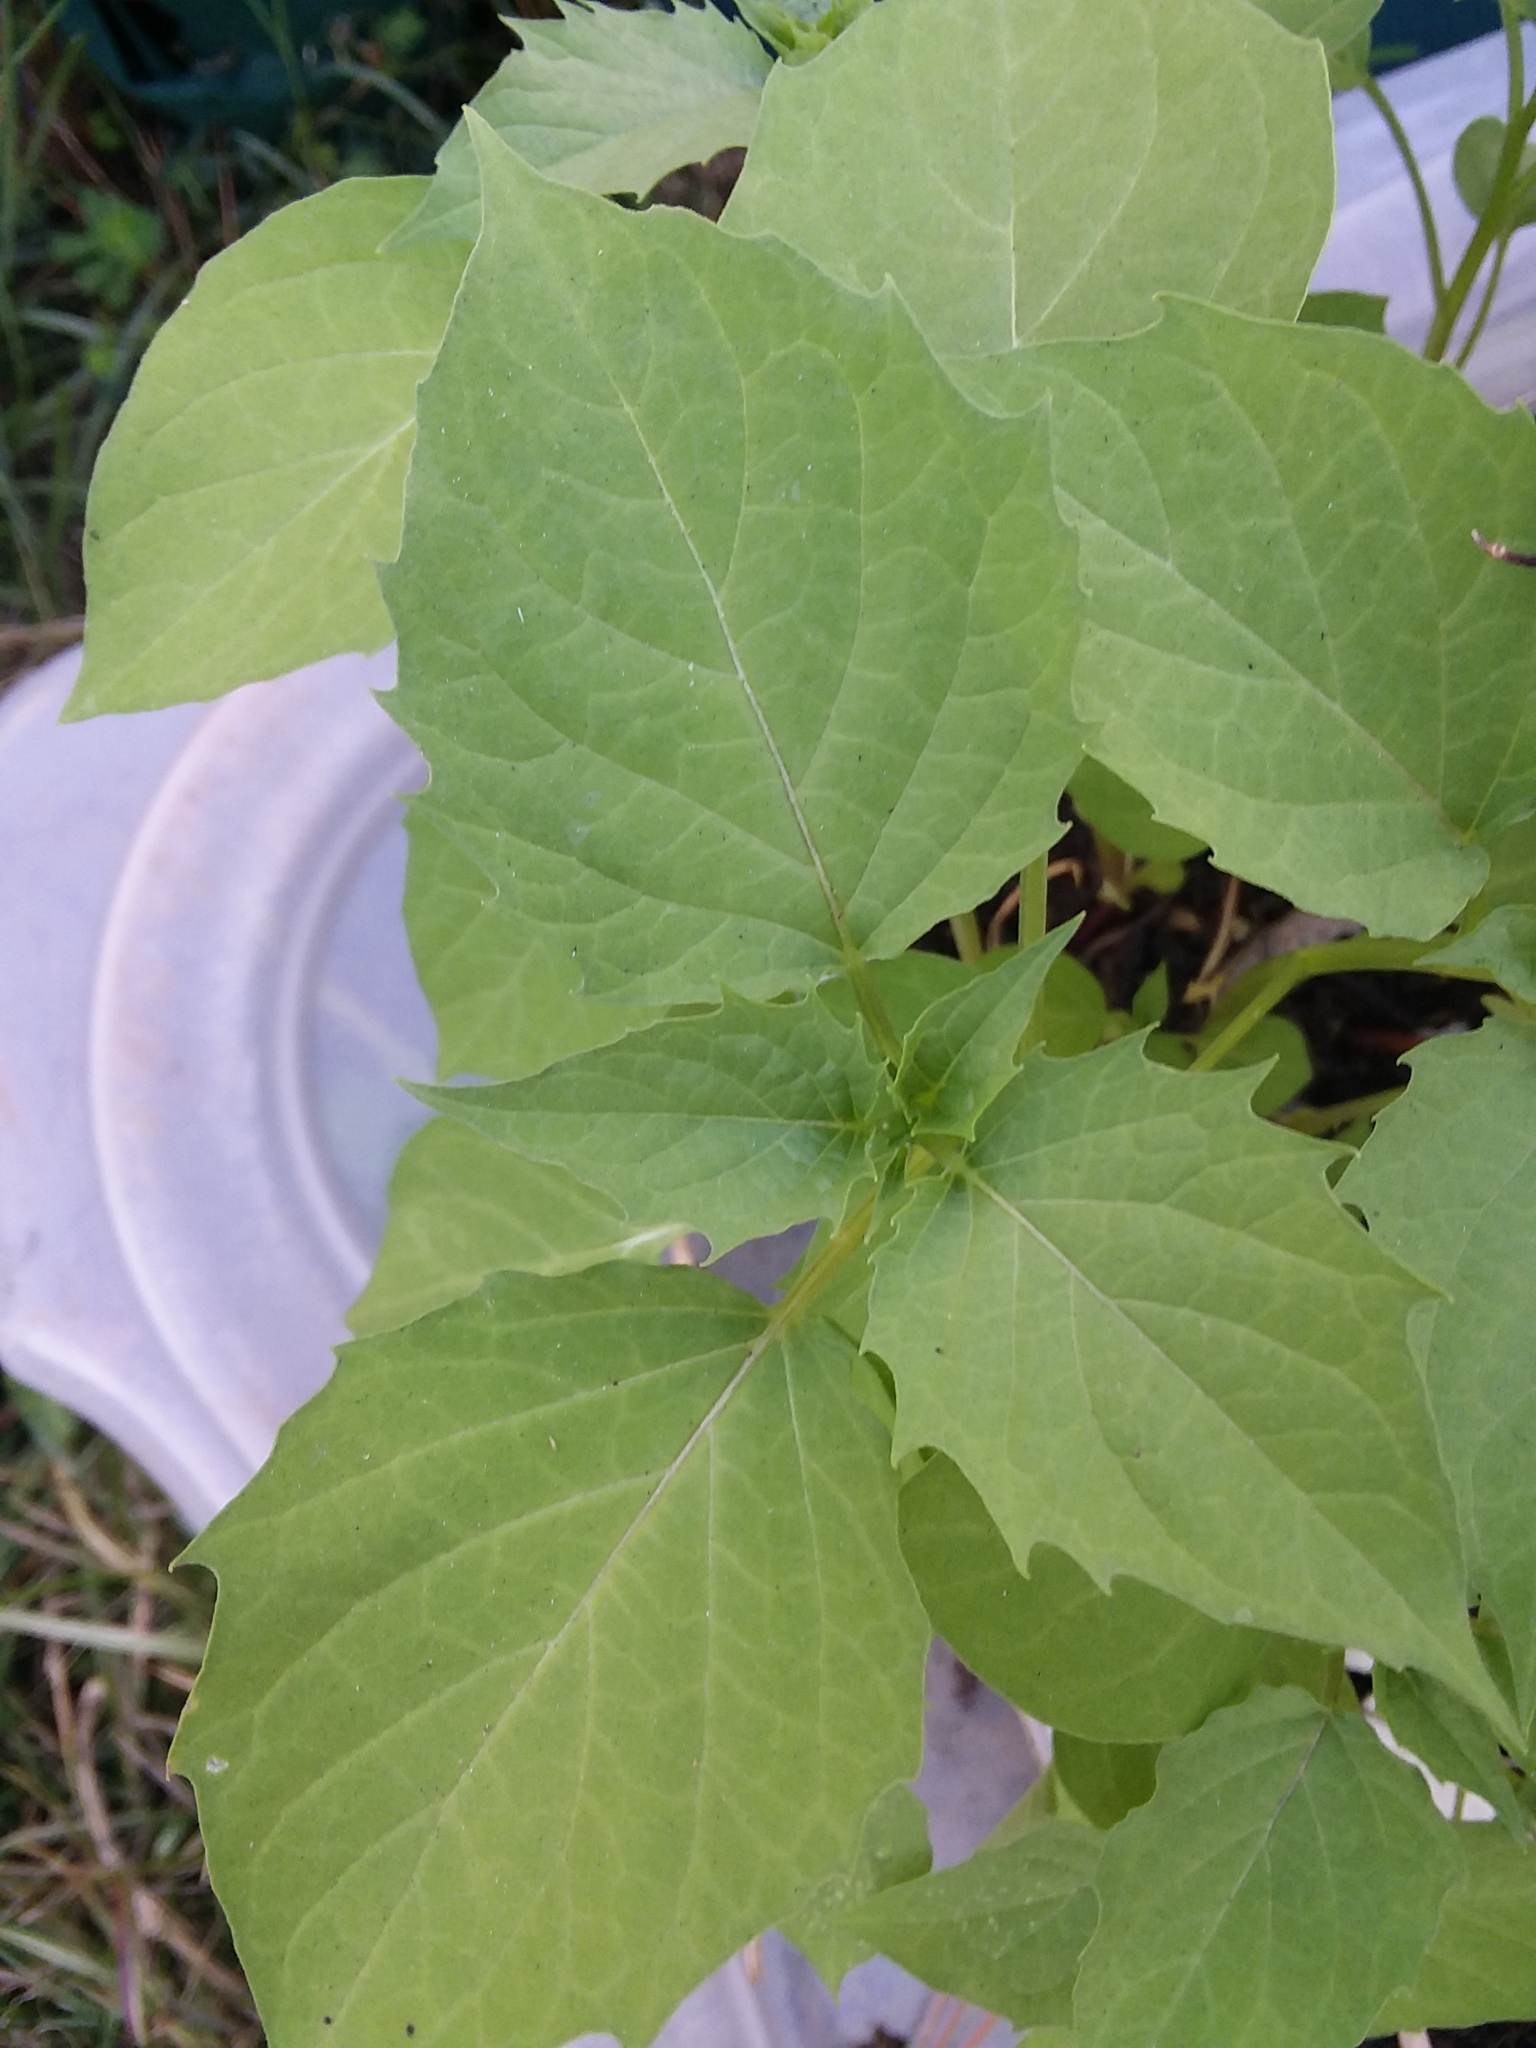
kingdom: Plantae
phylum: Tracheophyta
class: Magnoliopsida
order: Solanales
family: Solanaceae
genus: Physalis
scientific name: Physalis angulata
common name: Angular winter-cherry
